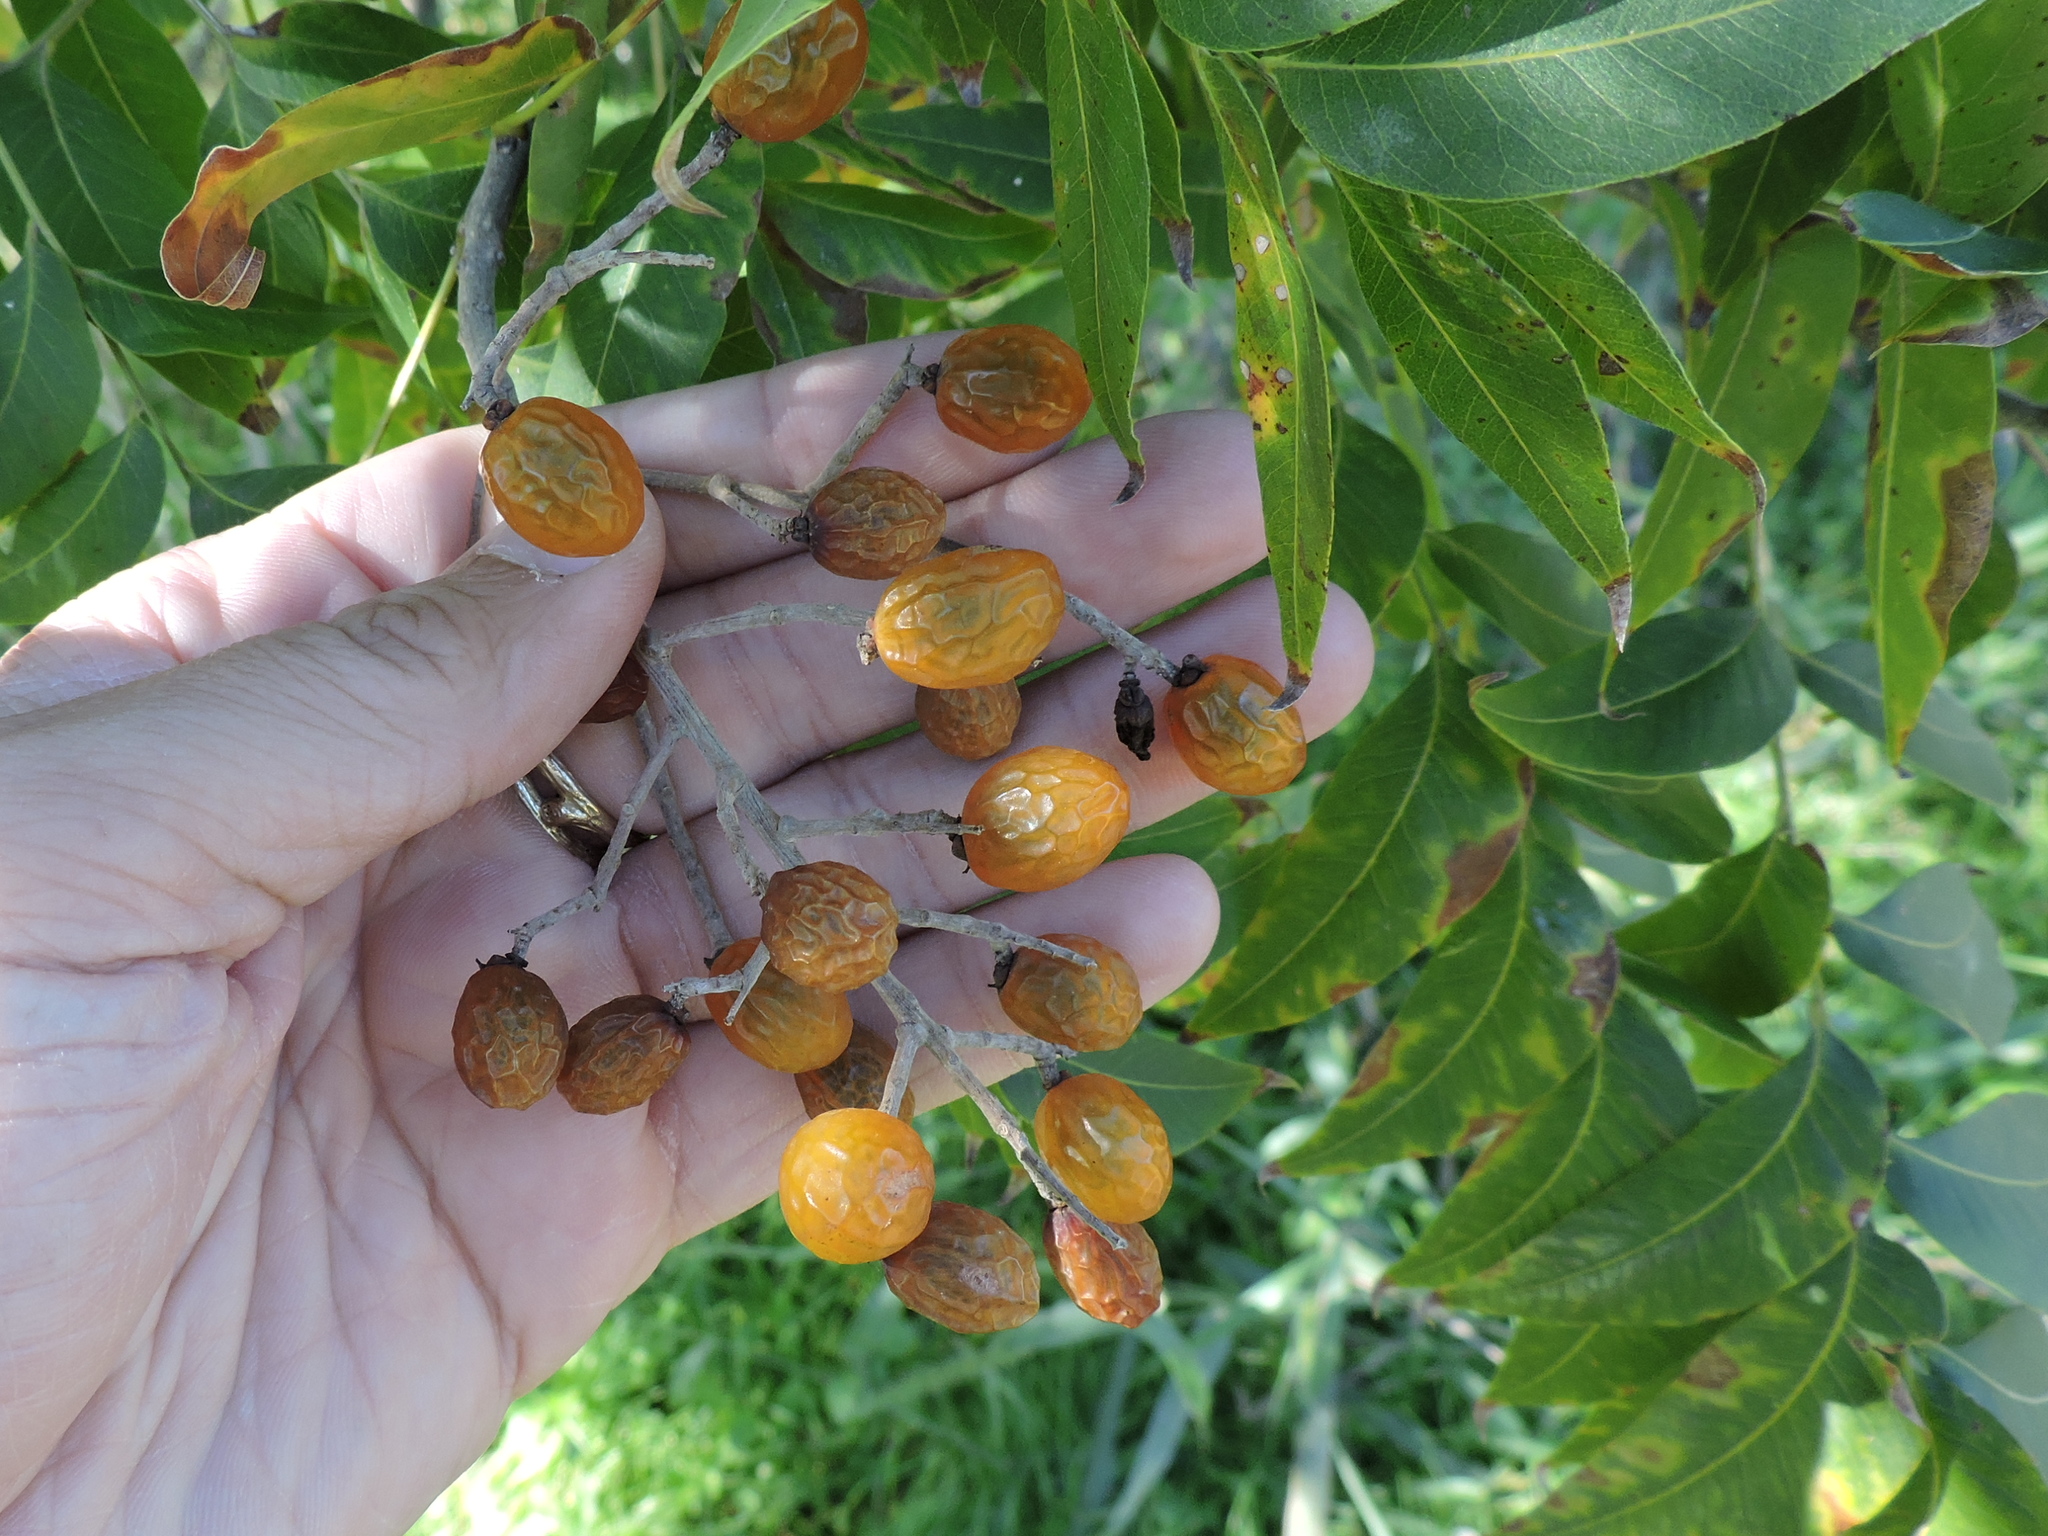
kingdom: Plantae
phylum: Tracheophyta
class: Magnoliopsida
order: Sapindales
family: Sapindaceae
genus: Sapindus
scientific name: Sapindus drummondii
